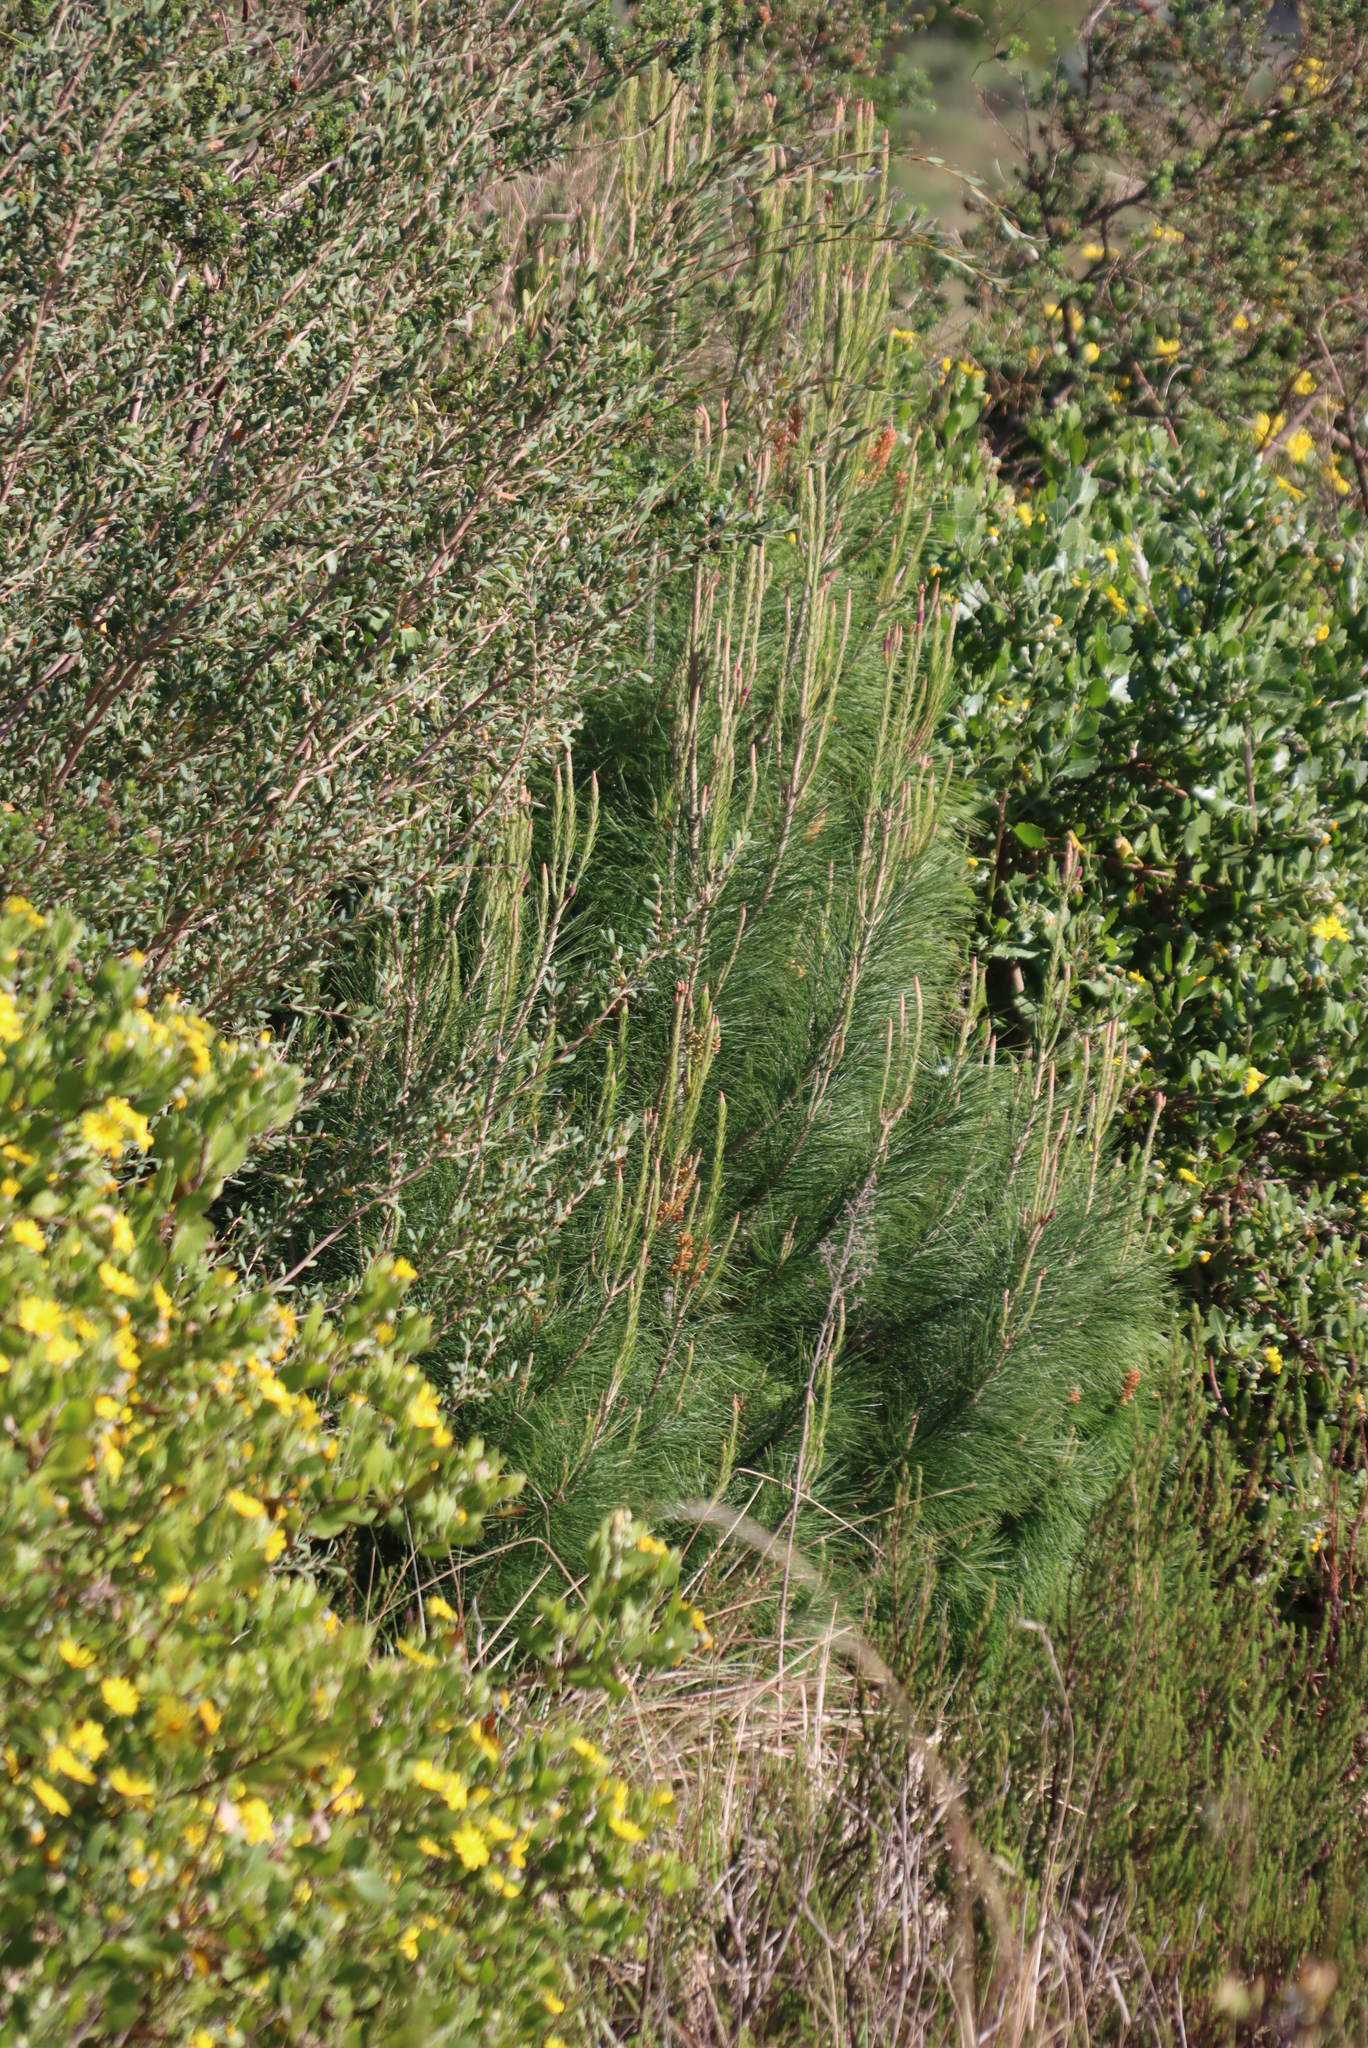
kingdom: Plantae
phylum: Tracheophyta
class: Pinopsida
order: Pinales
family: Pinaceae
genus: Pinus
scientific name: Pinus radiata
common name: Monterey pine
